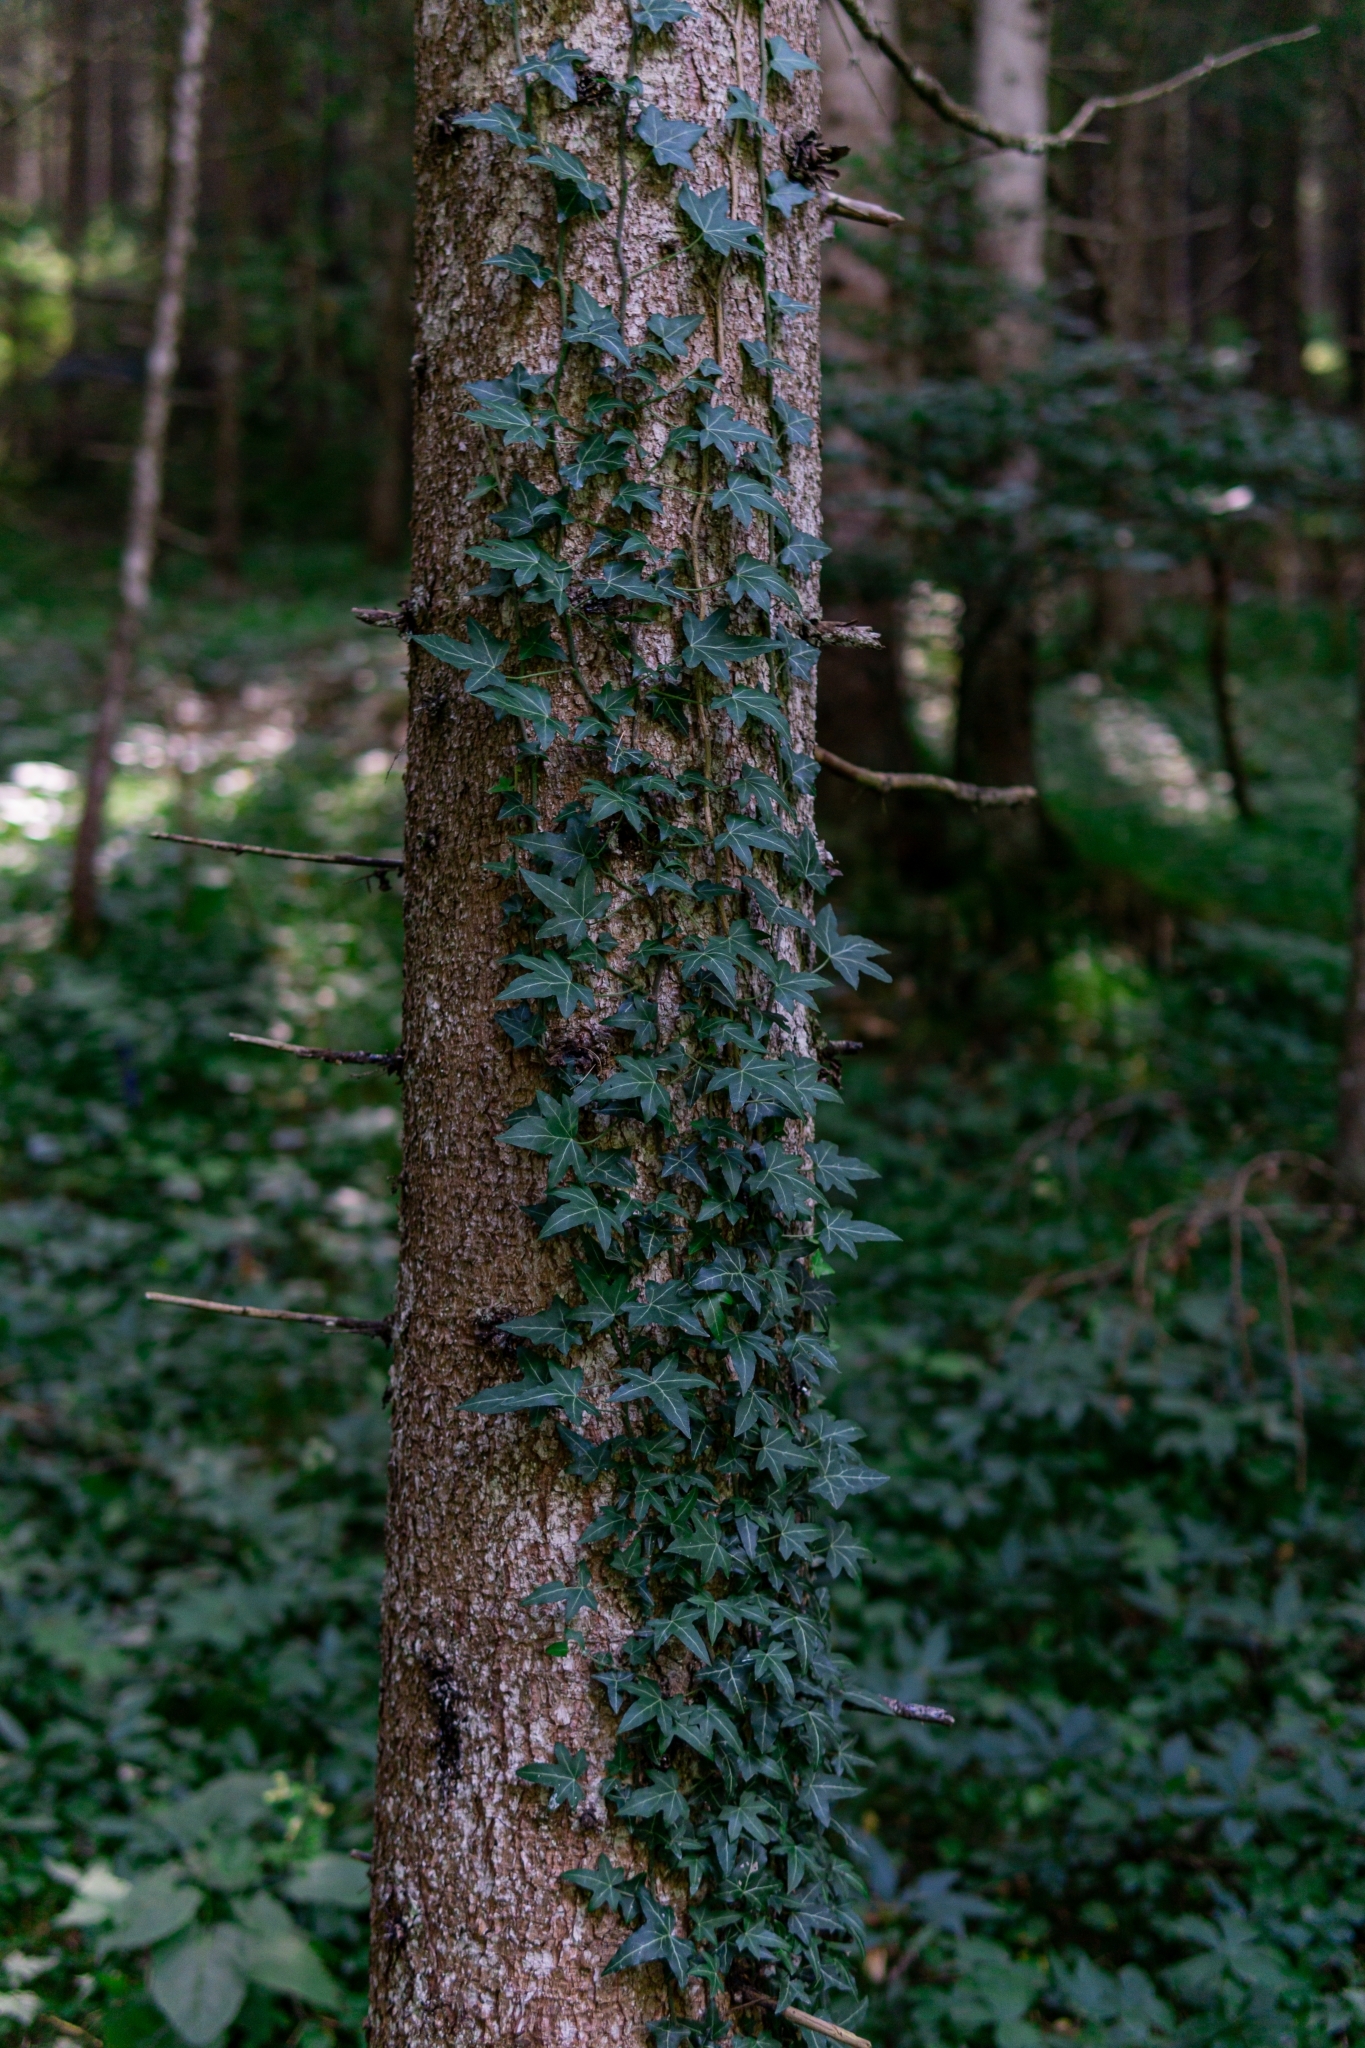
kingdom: Plantae
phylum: Tracheophyta
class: Magnoliopsida
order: Apiales
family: Araliaceae
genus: Hedera
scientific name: Hedera helix
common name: Ivy
